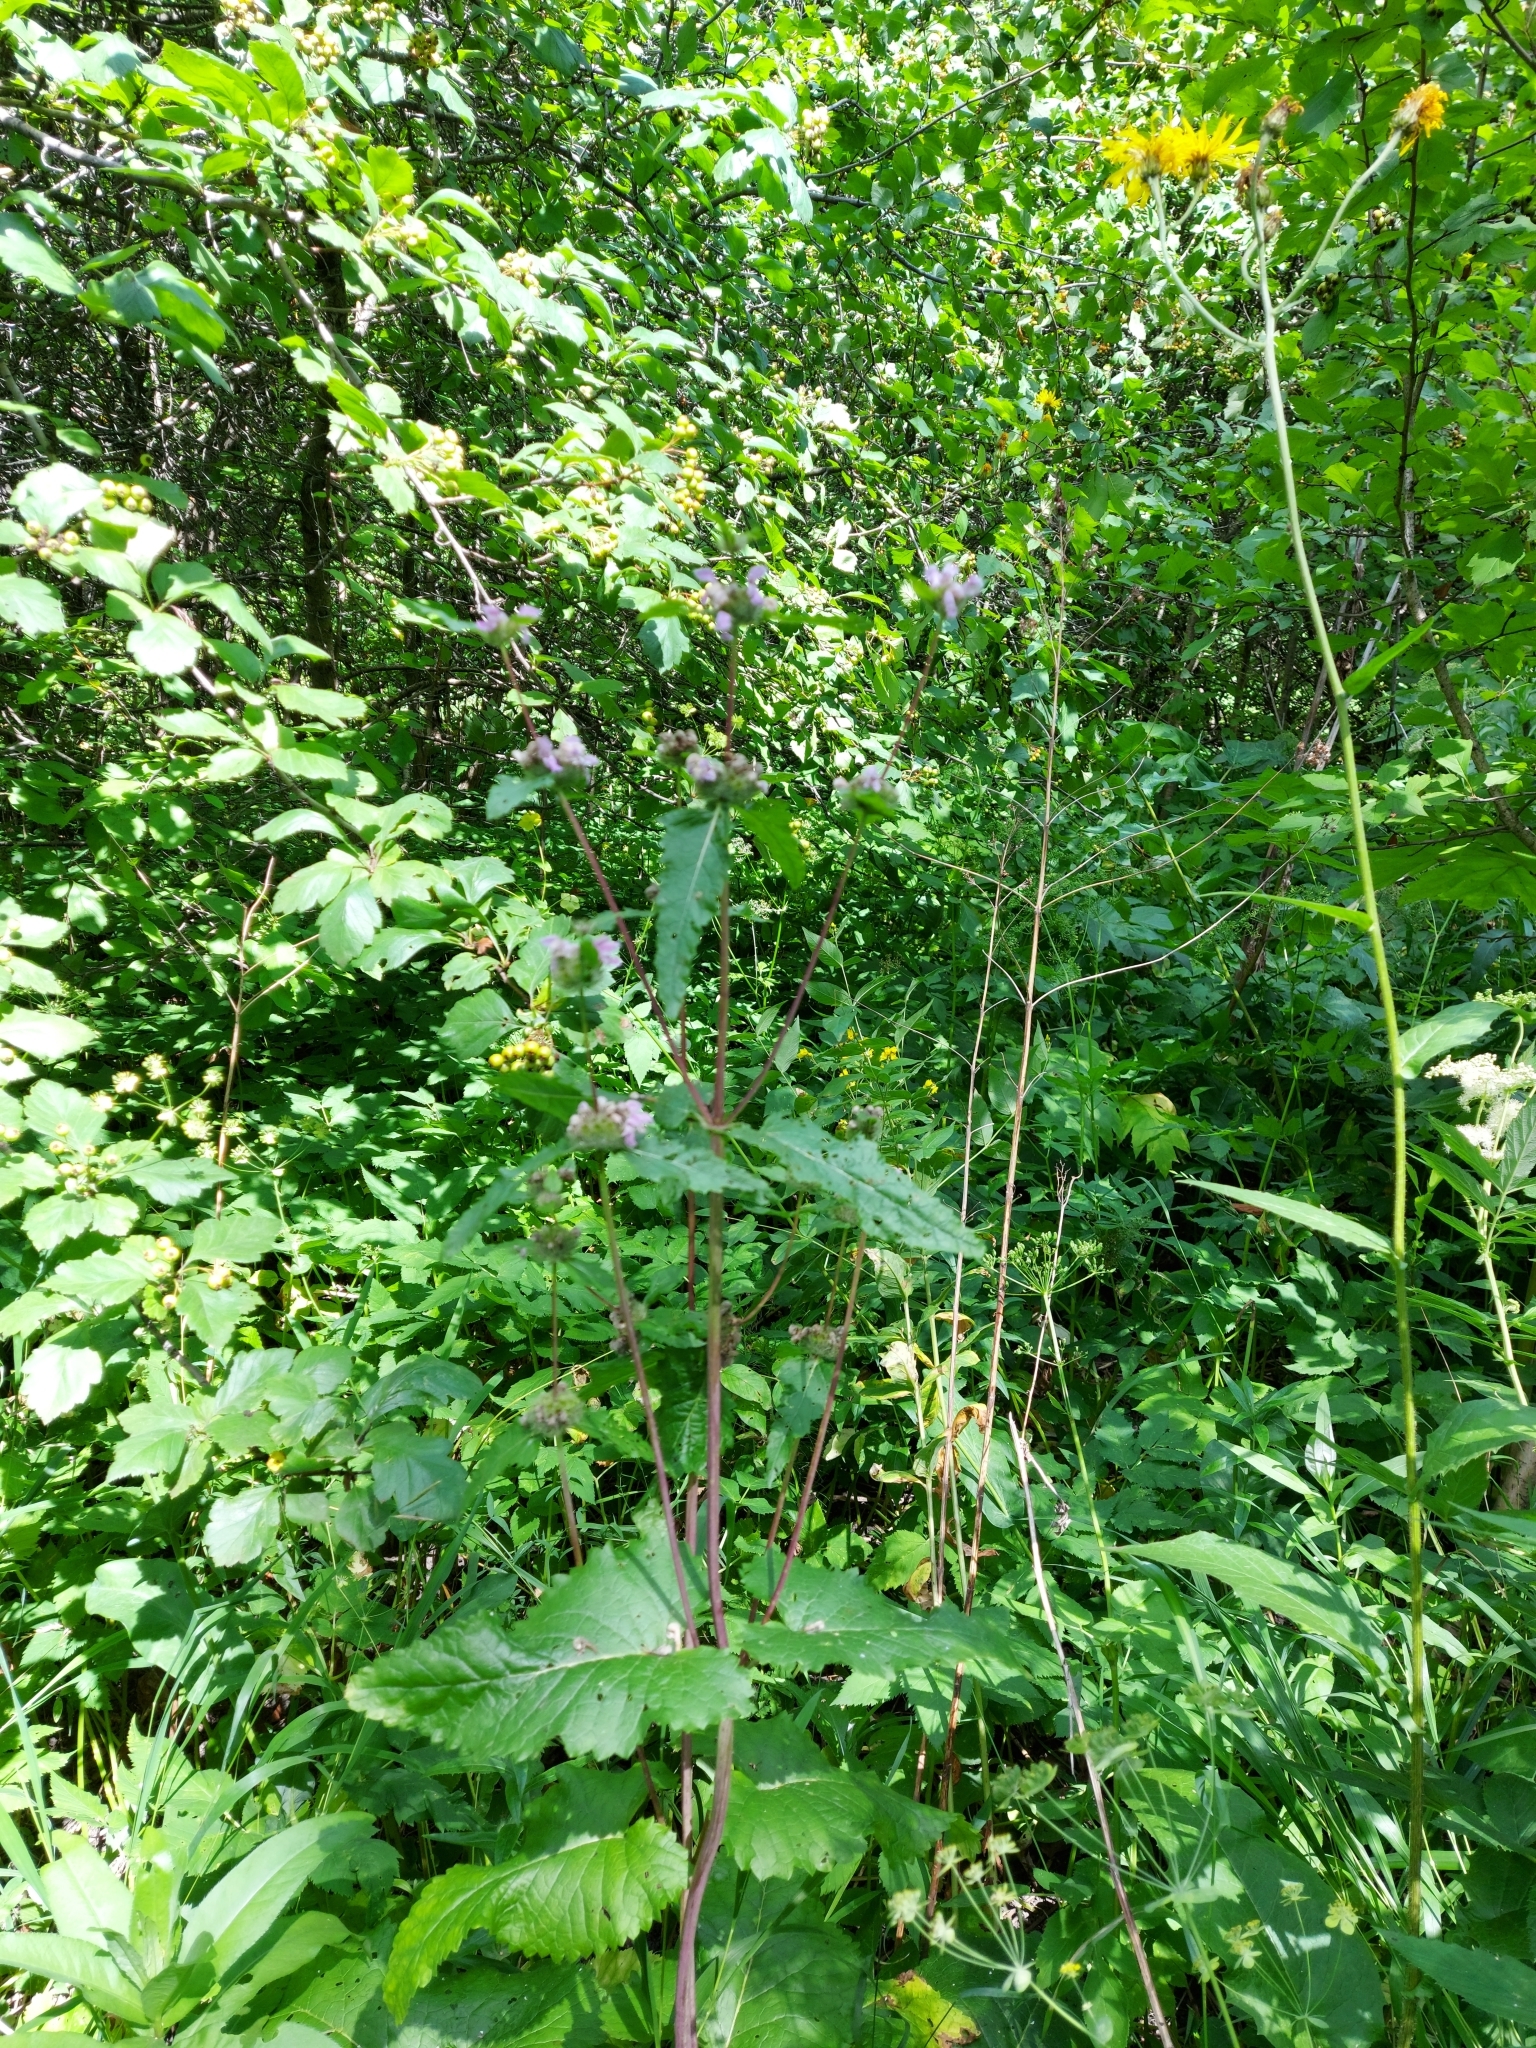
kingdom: Plantae
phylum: Tracheophyta
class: Magnoliopsida
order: Lamiales
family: Lamiaceae
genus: Phlomoides
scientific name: Phlomoides tuberosa
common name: Tuberous jerusalem sage
